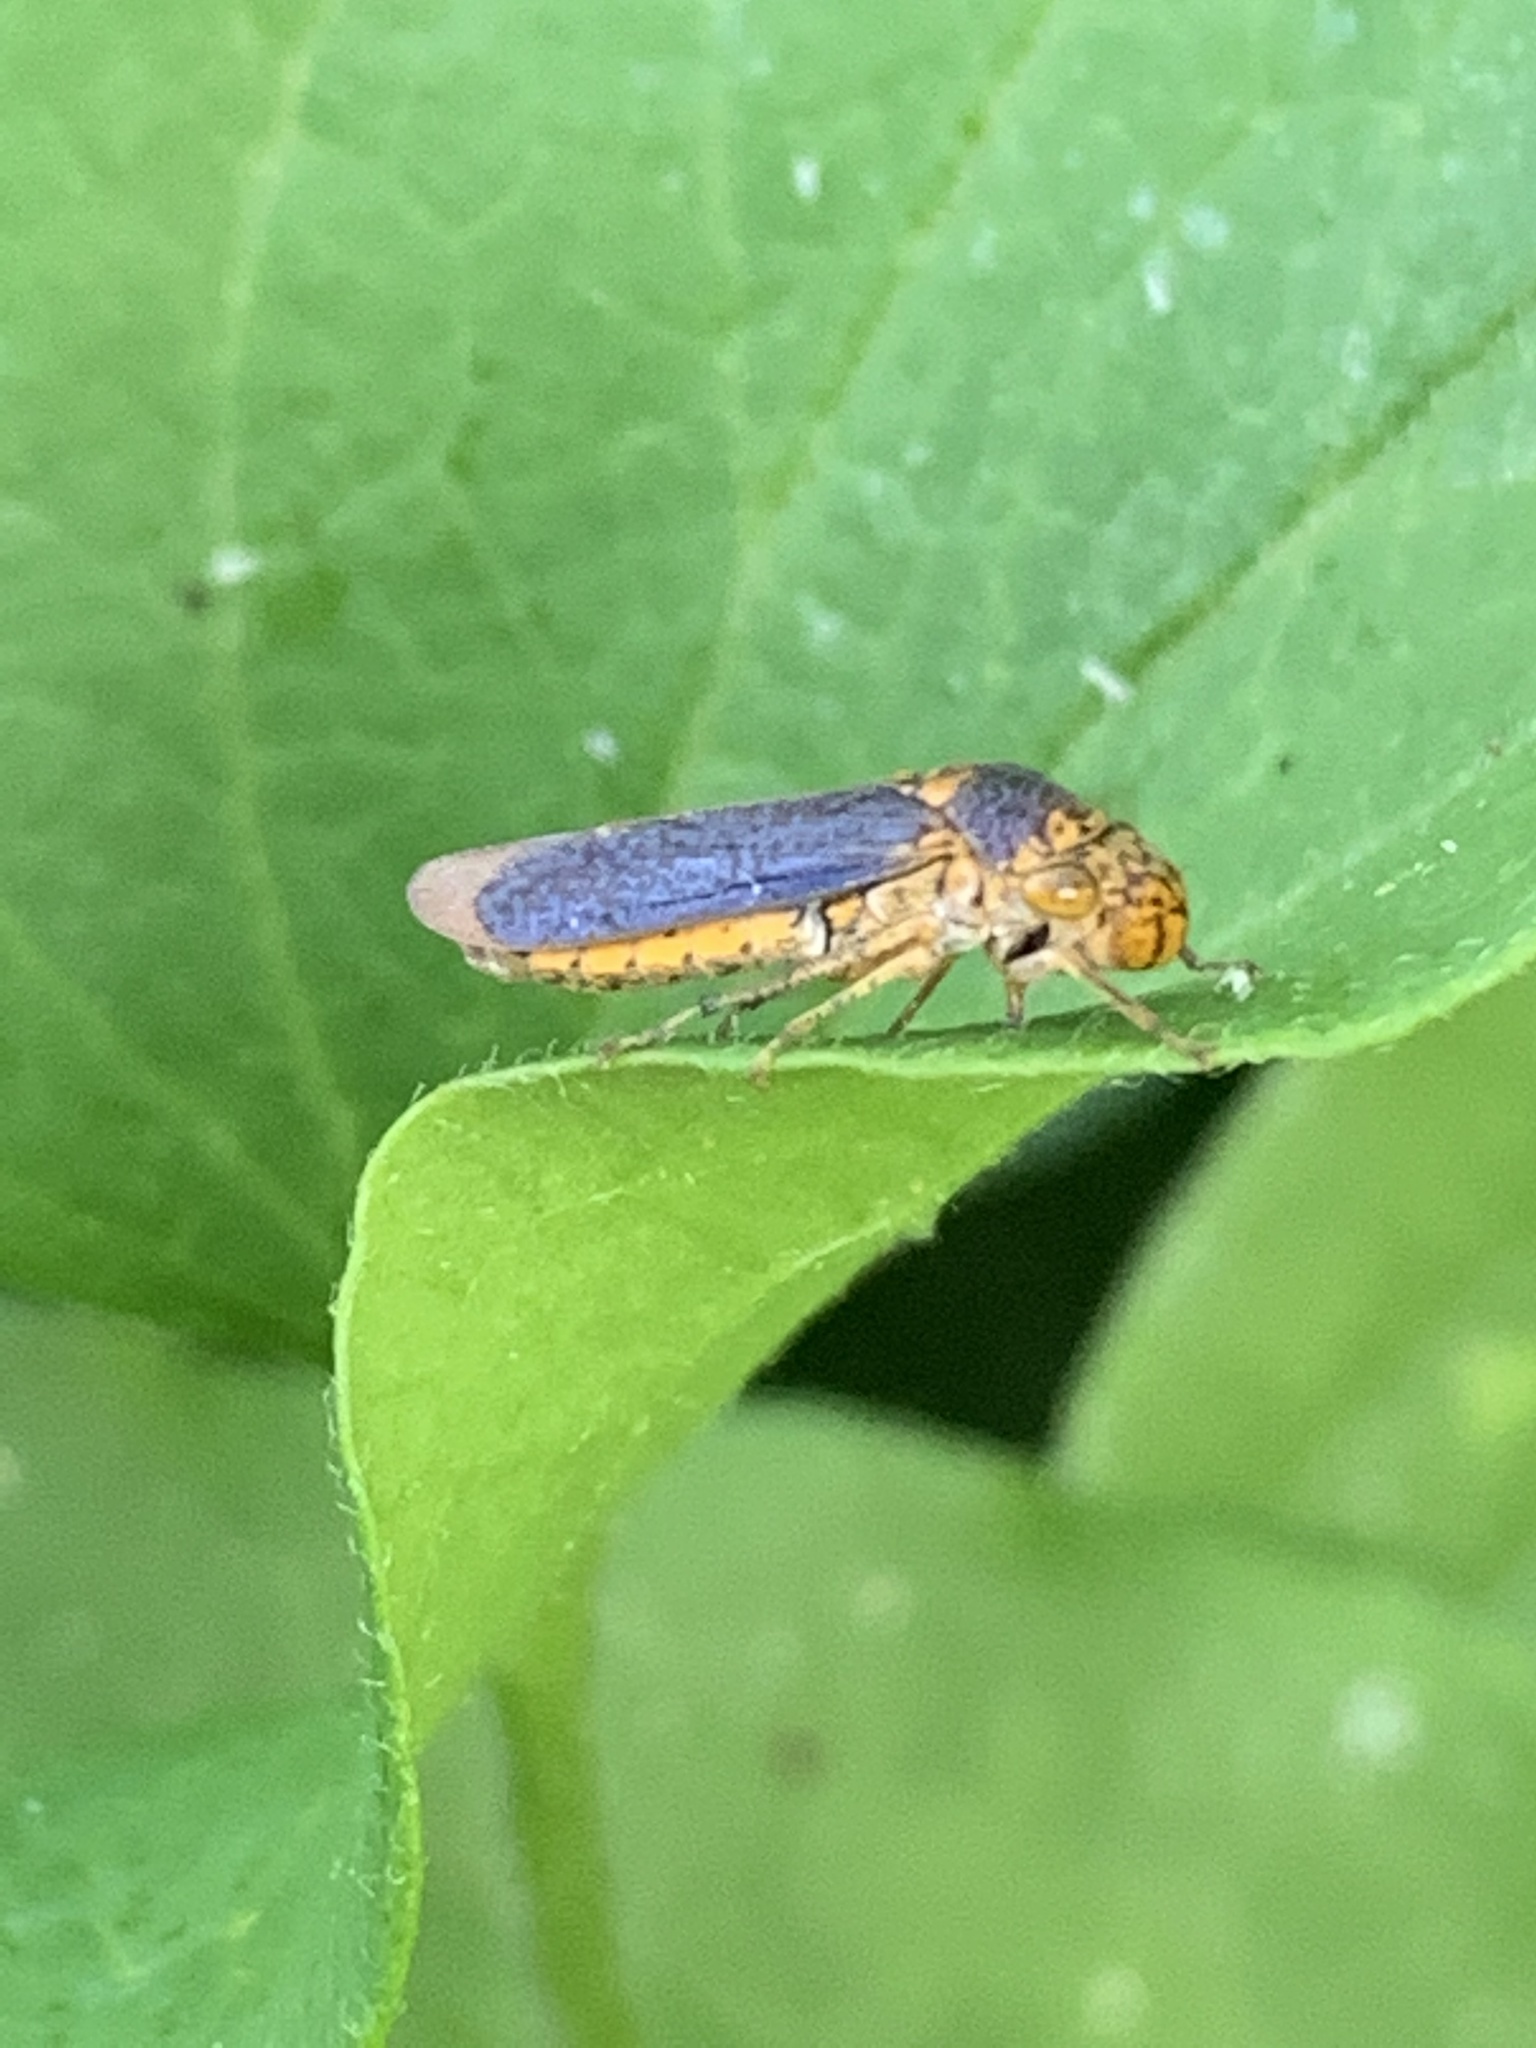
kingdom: Animalia
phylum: Arthropoda
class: Insecta
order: Hemiptera
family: Cicadellidae
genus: Oncometopia
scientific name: Oncometopia orbona
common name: Broad-headed sharpshooter
